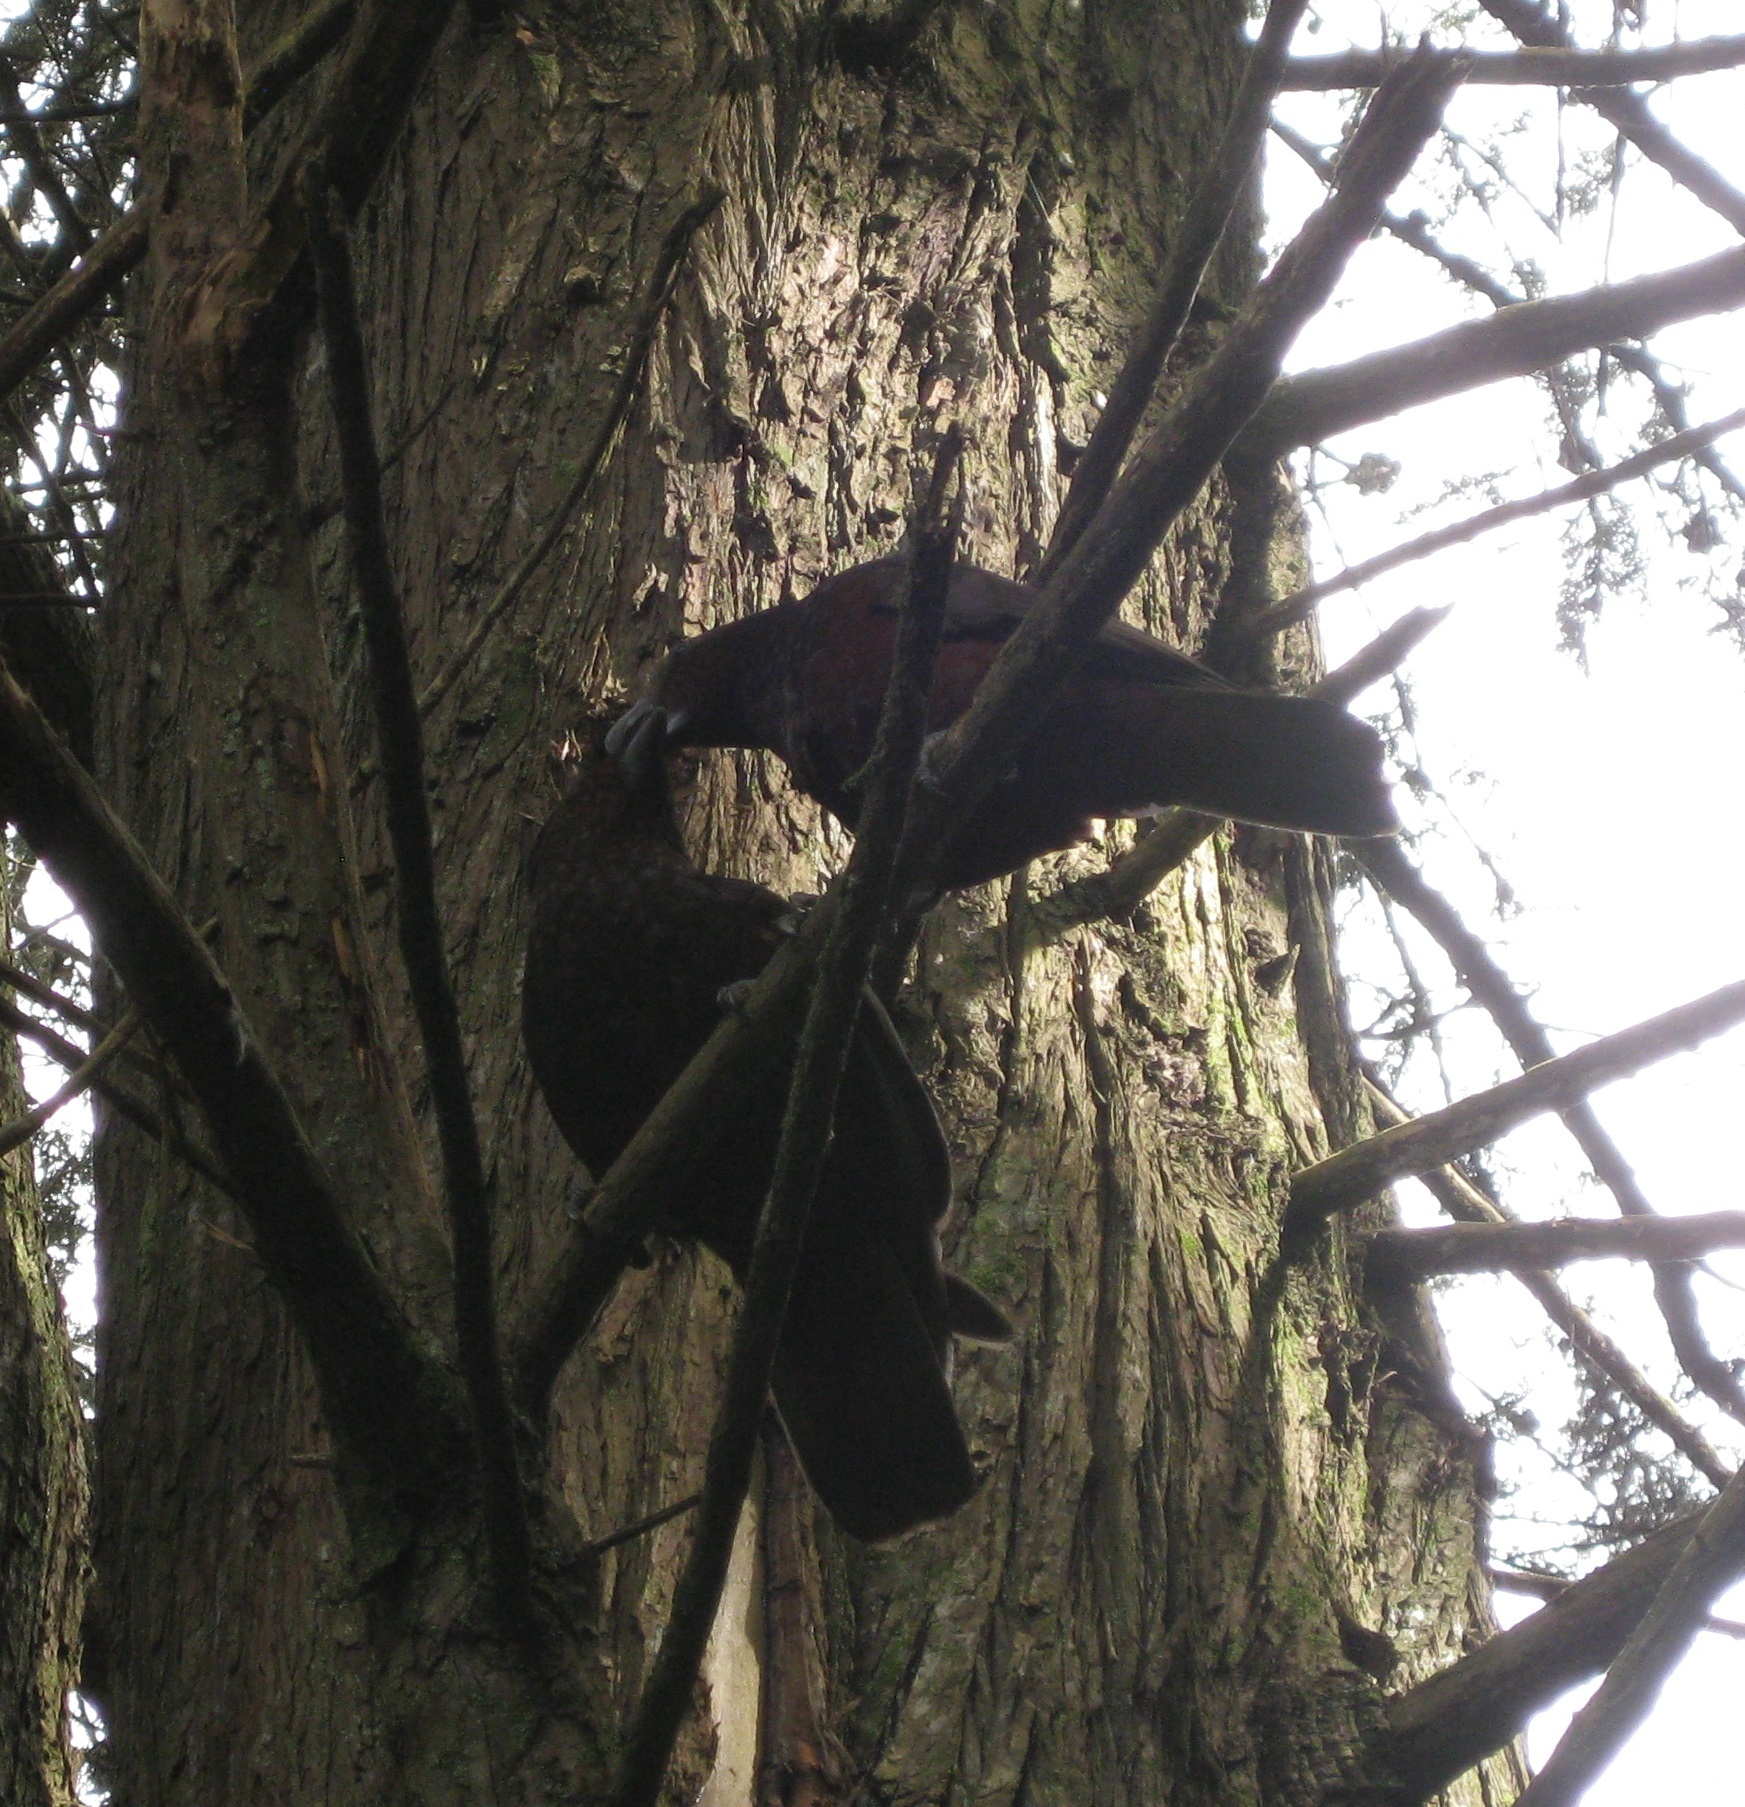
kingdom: Animalia
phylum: Chordata
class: Aves
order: Psittaciformes
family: Psittacidae
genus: Nestor
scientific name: Nestor meridionalis
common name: New zealand kaka
